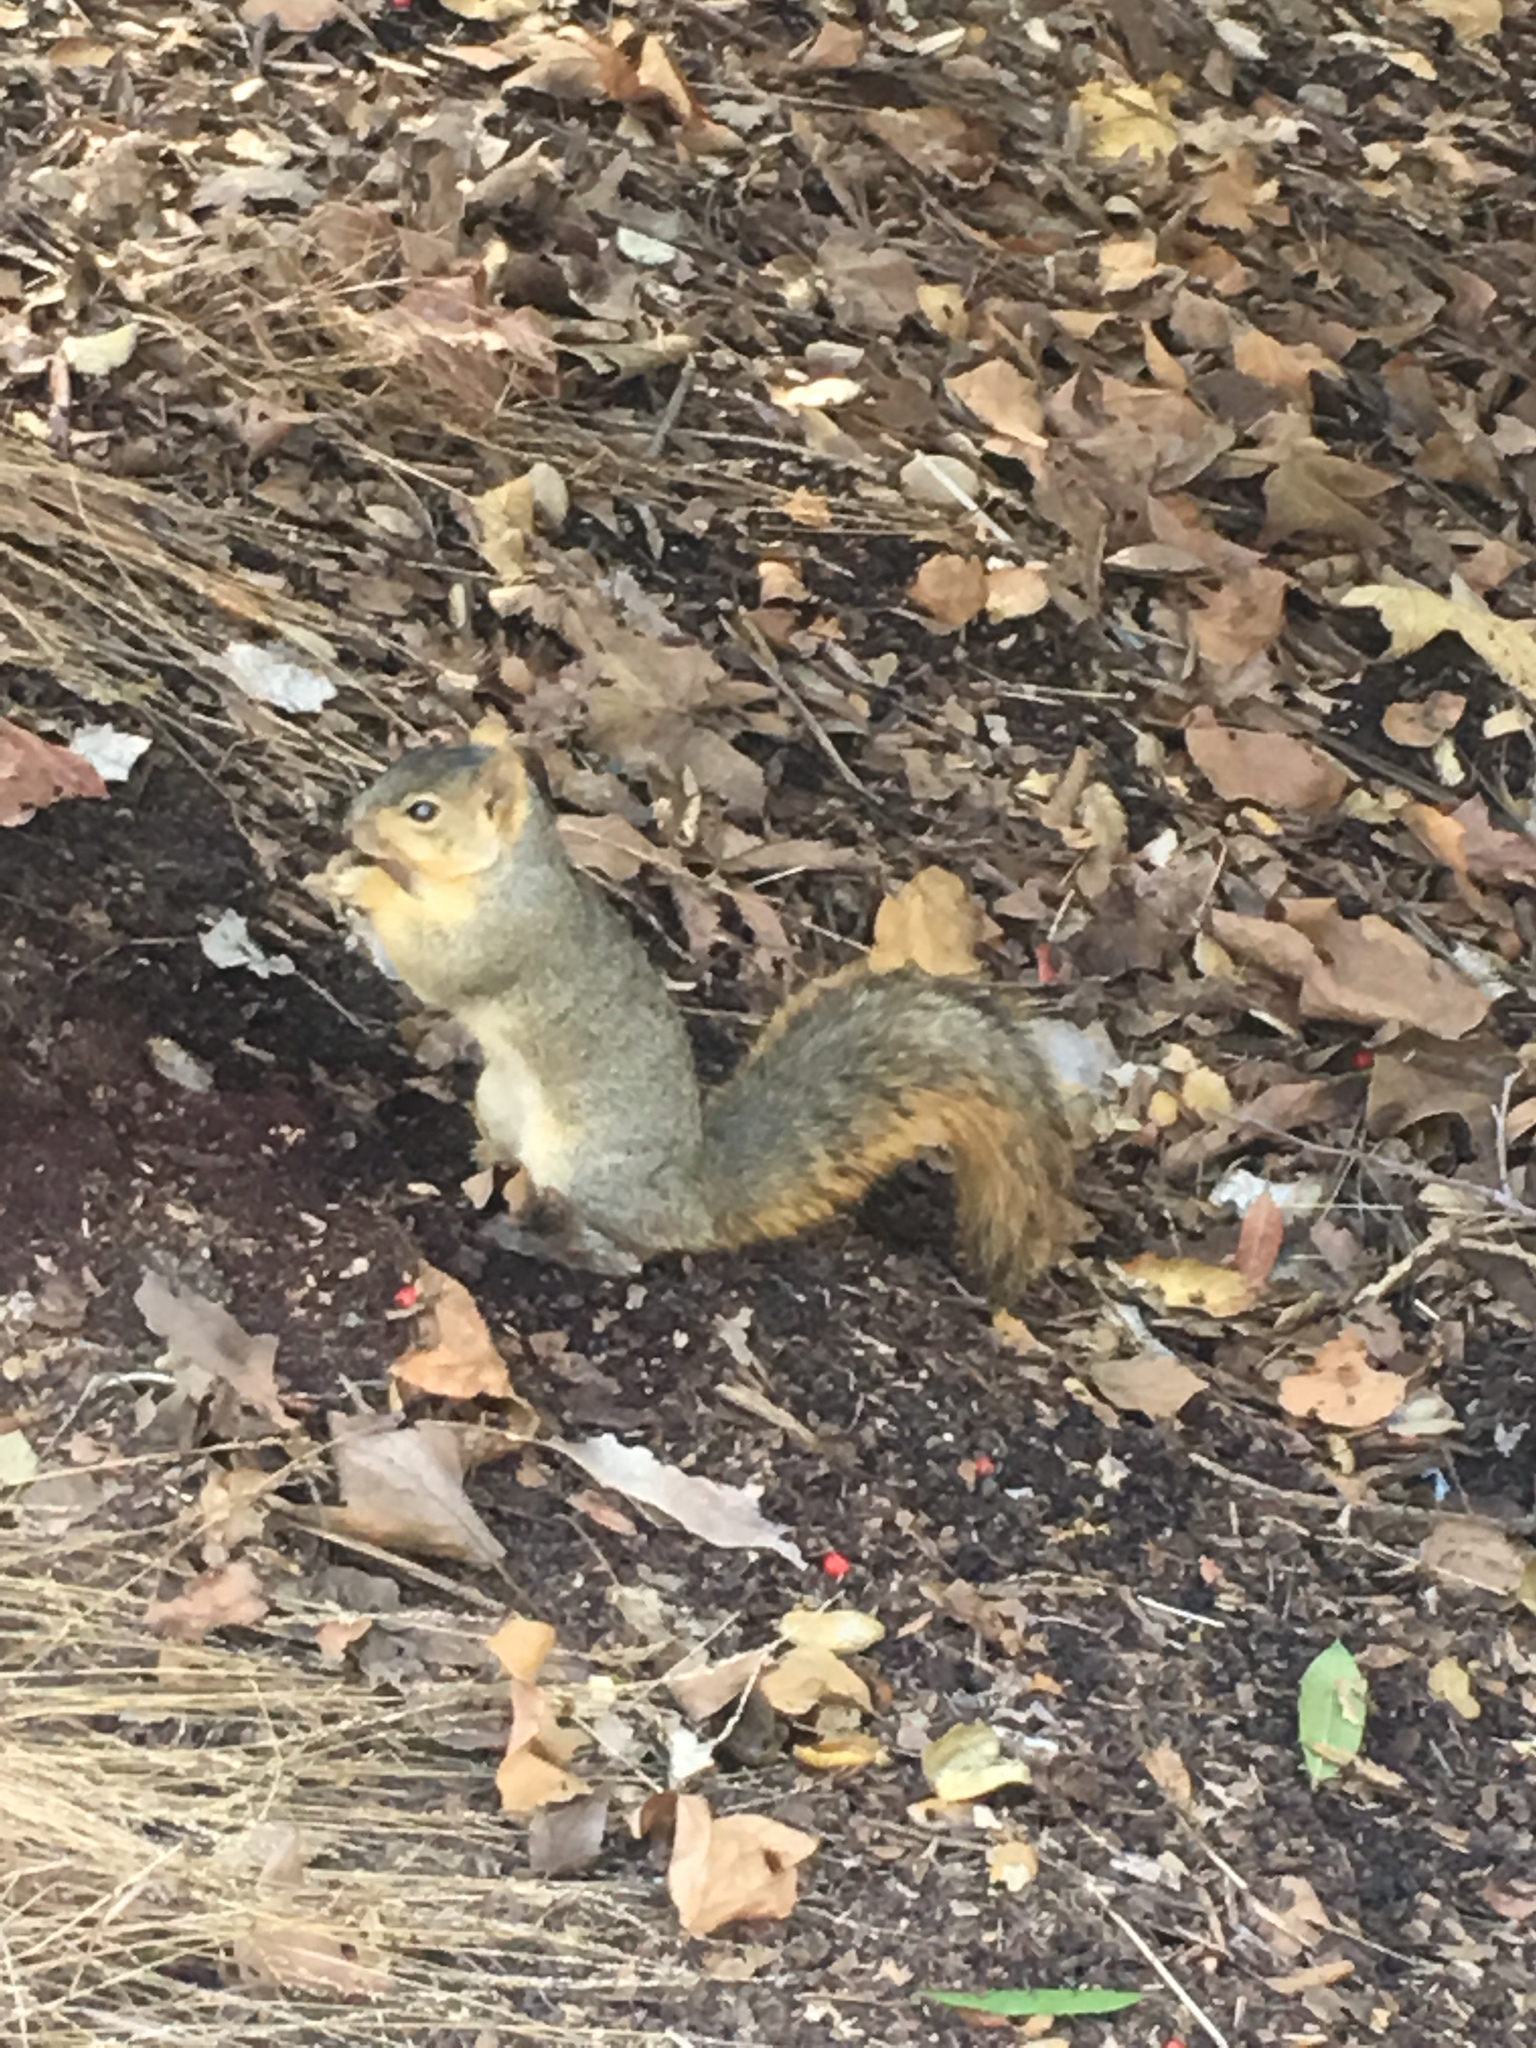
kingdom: Animalia
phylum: Chordata
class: Mammalia
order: Rodentia
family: Sciuridae
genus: Sciurus
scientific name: Sciurus niger
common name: Fox squirrel
